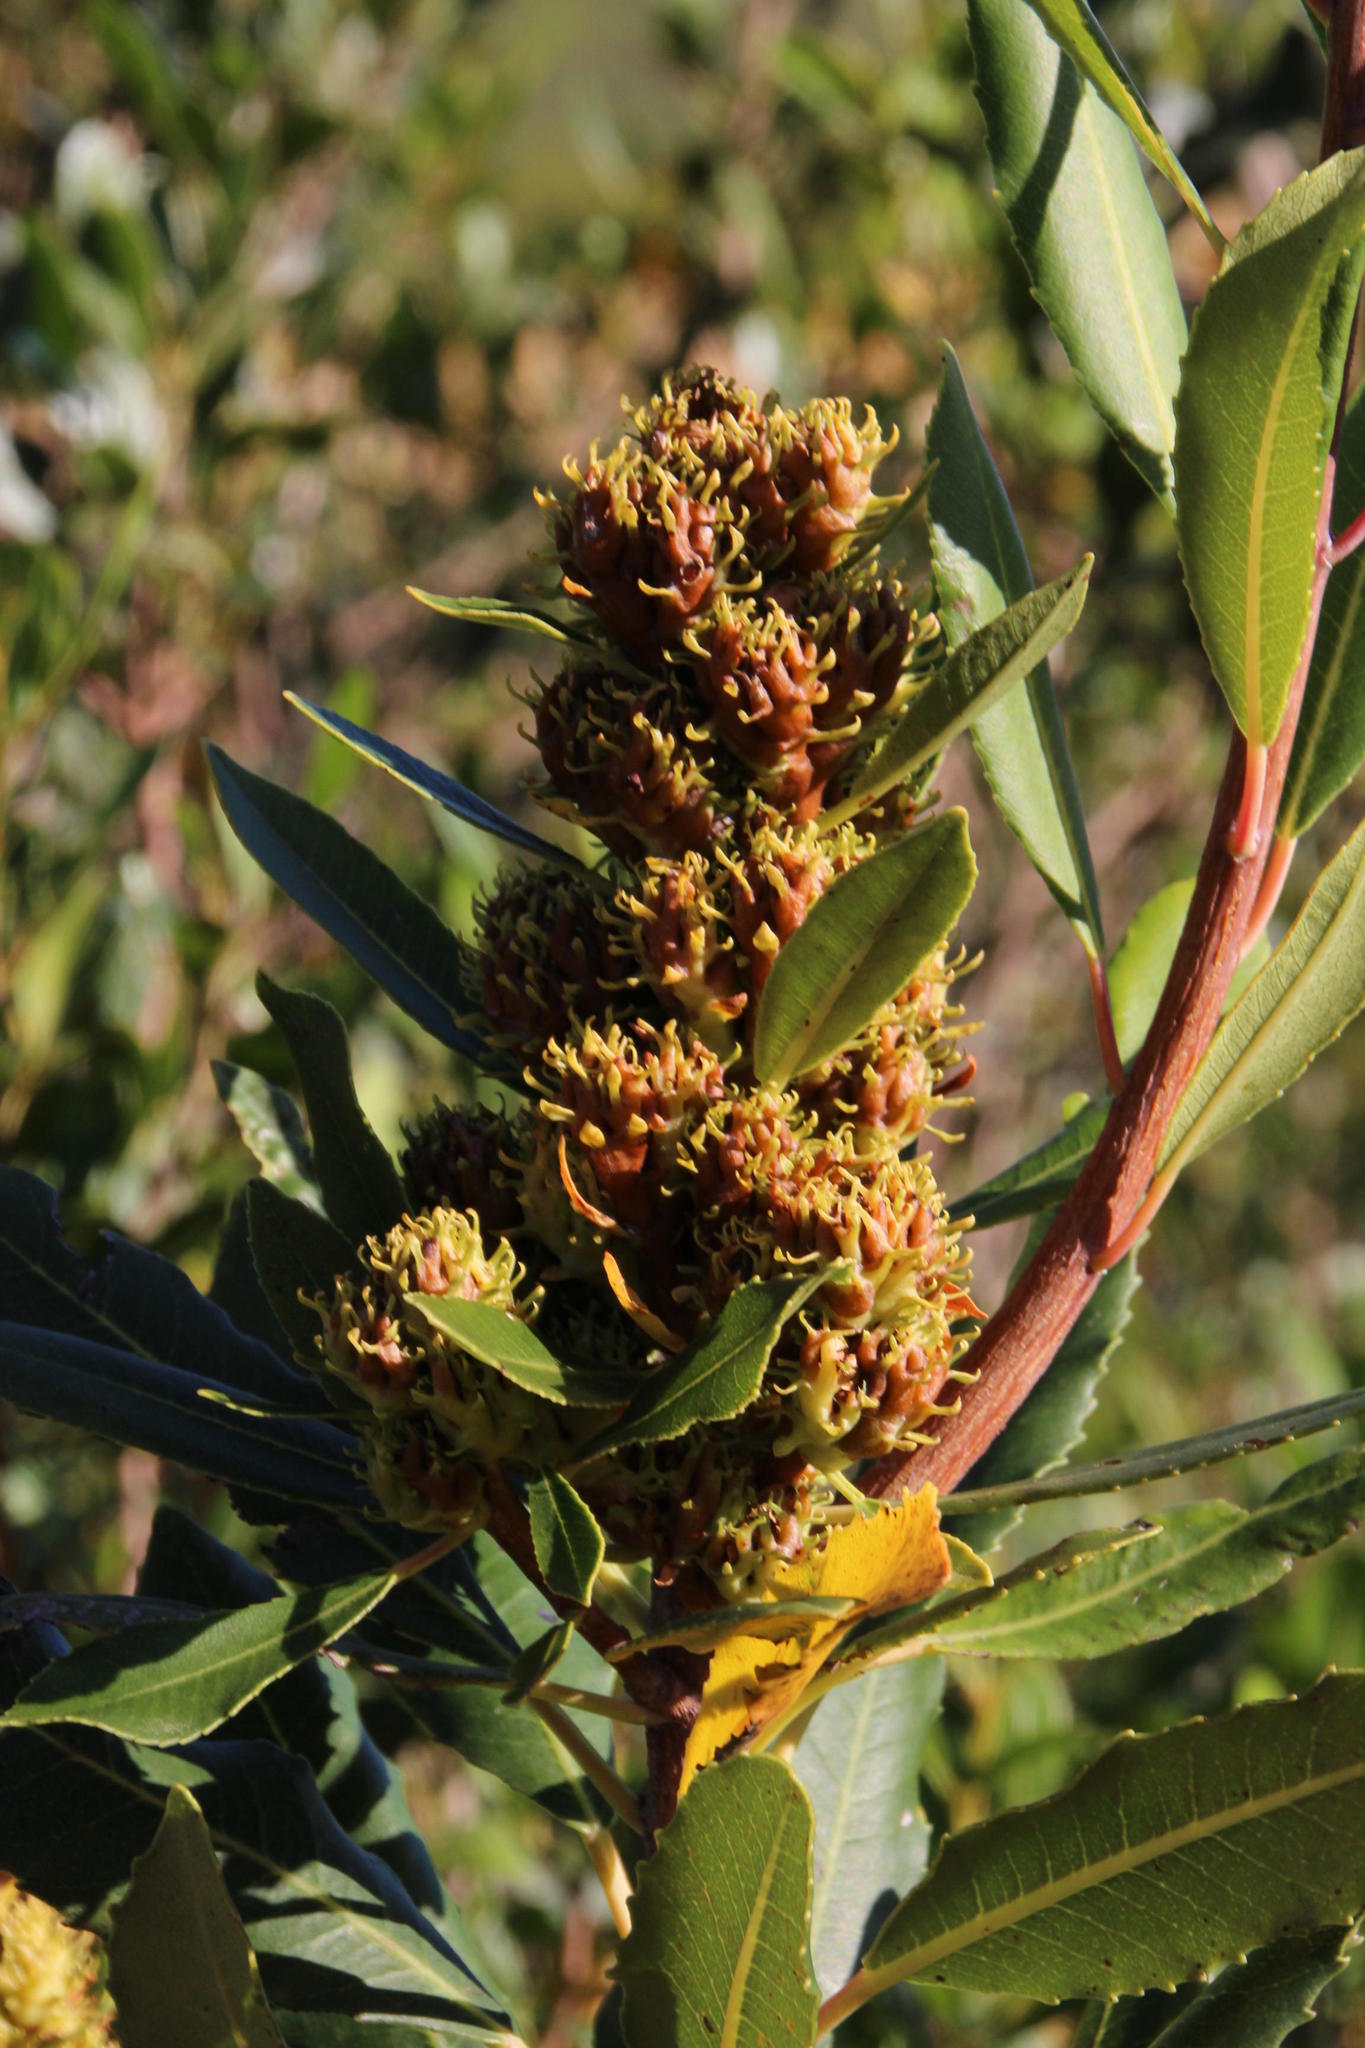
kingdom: Plantae
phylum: Tracheophyta
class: Magnoliopsida
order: Sapindales
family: Anacardiaceae
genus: Laurophyllus
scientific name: Laurophyllus capensis
